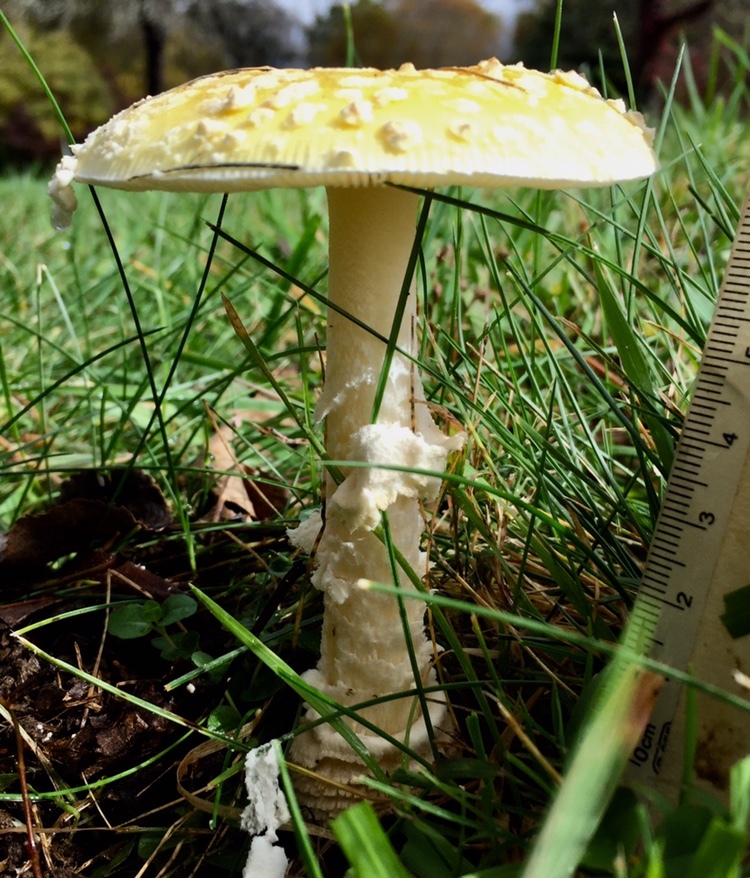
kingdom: Fungi
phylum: Basidiomycota
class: Agaricomycetes
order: Agaricales
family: Amanitaceae
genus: Amanita
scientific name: Amanita muscaria
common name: Fly agaric
